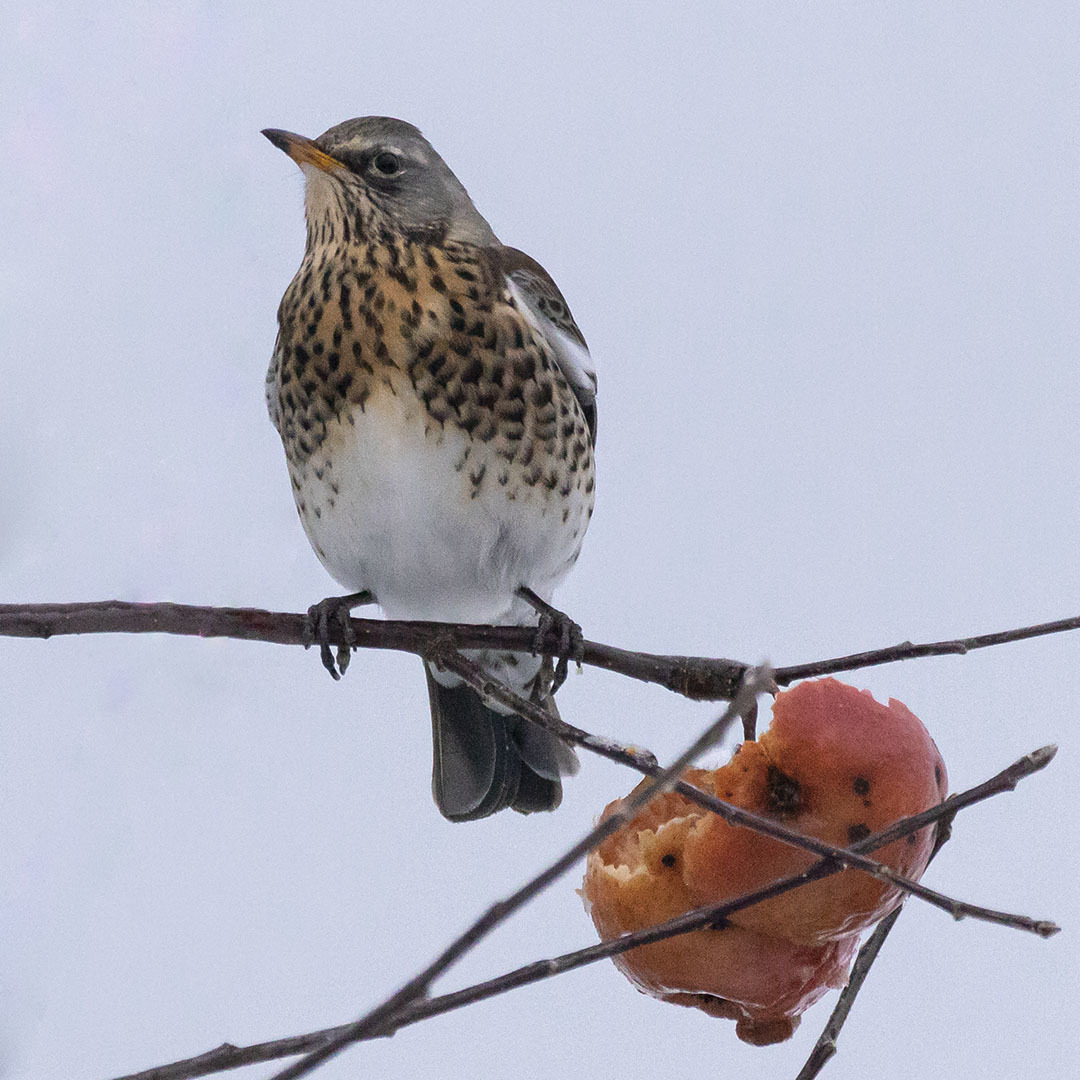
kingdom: Animalia
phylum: Chordata
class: Aves
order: Passeriformes
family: Turdidae
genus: Turdus
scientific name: Turdus pilaris
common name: Fieldfare
